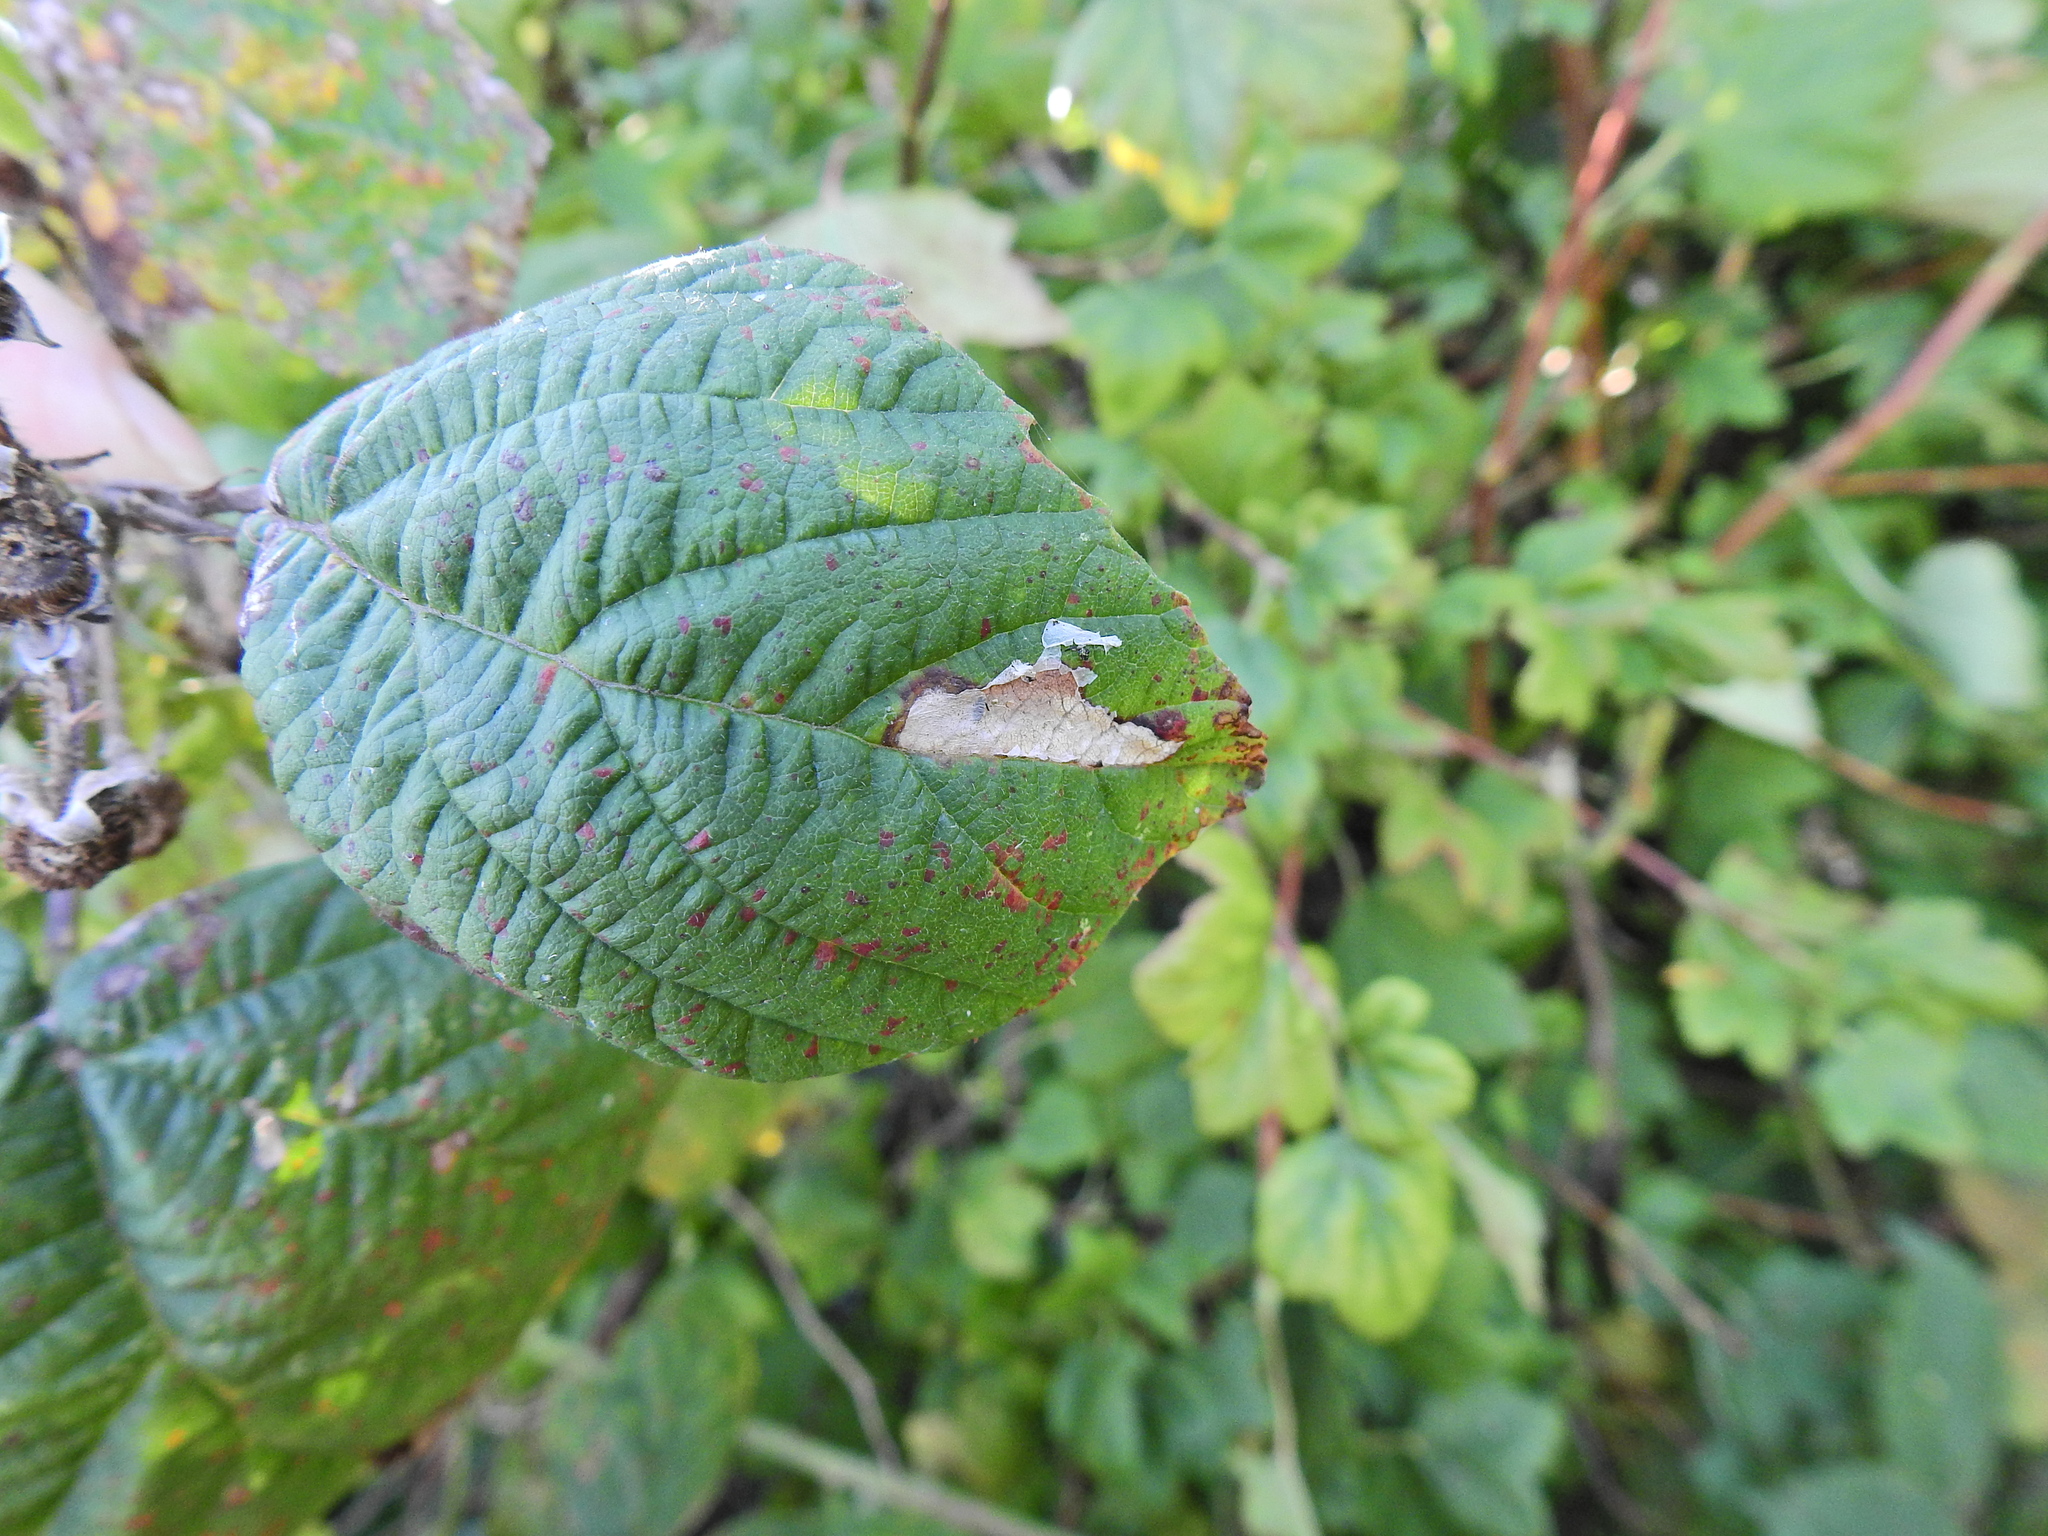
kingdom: Animalia
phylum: Arthropoda
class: Insecta
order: Lepidoptera
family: Tischeriidae
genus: Coptotriche
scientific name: Coptotriche marginea
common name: Bordered carl
